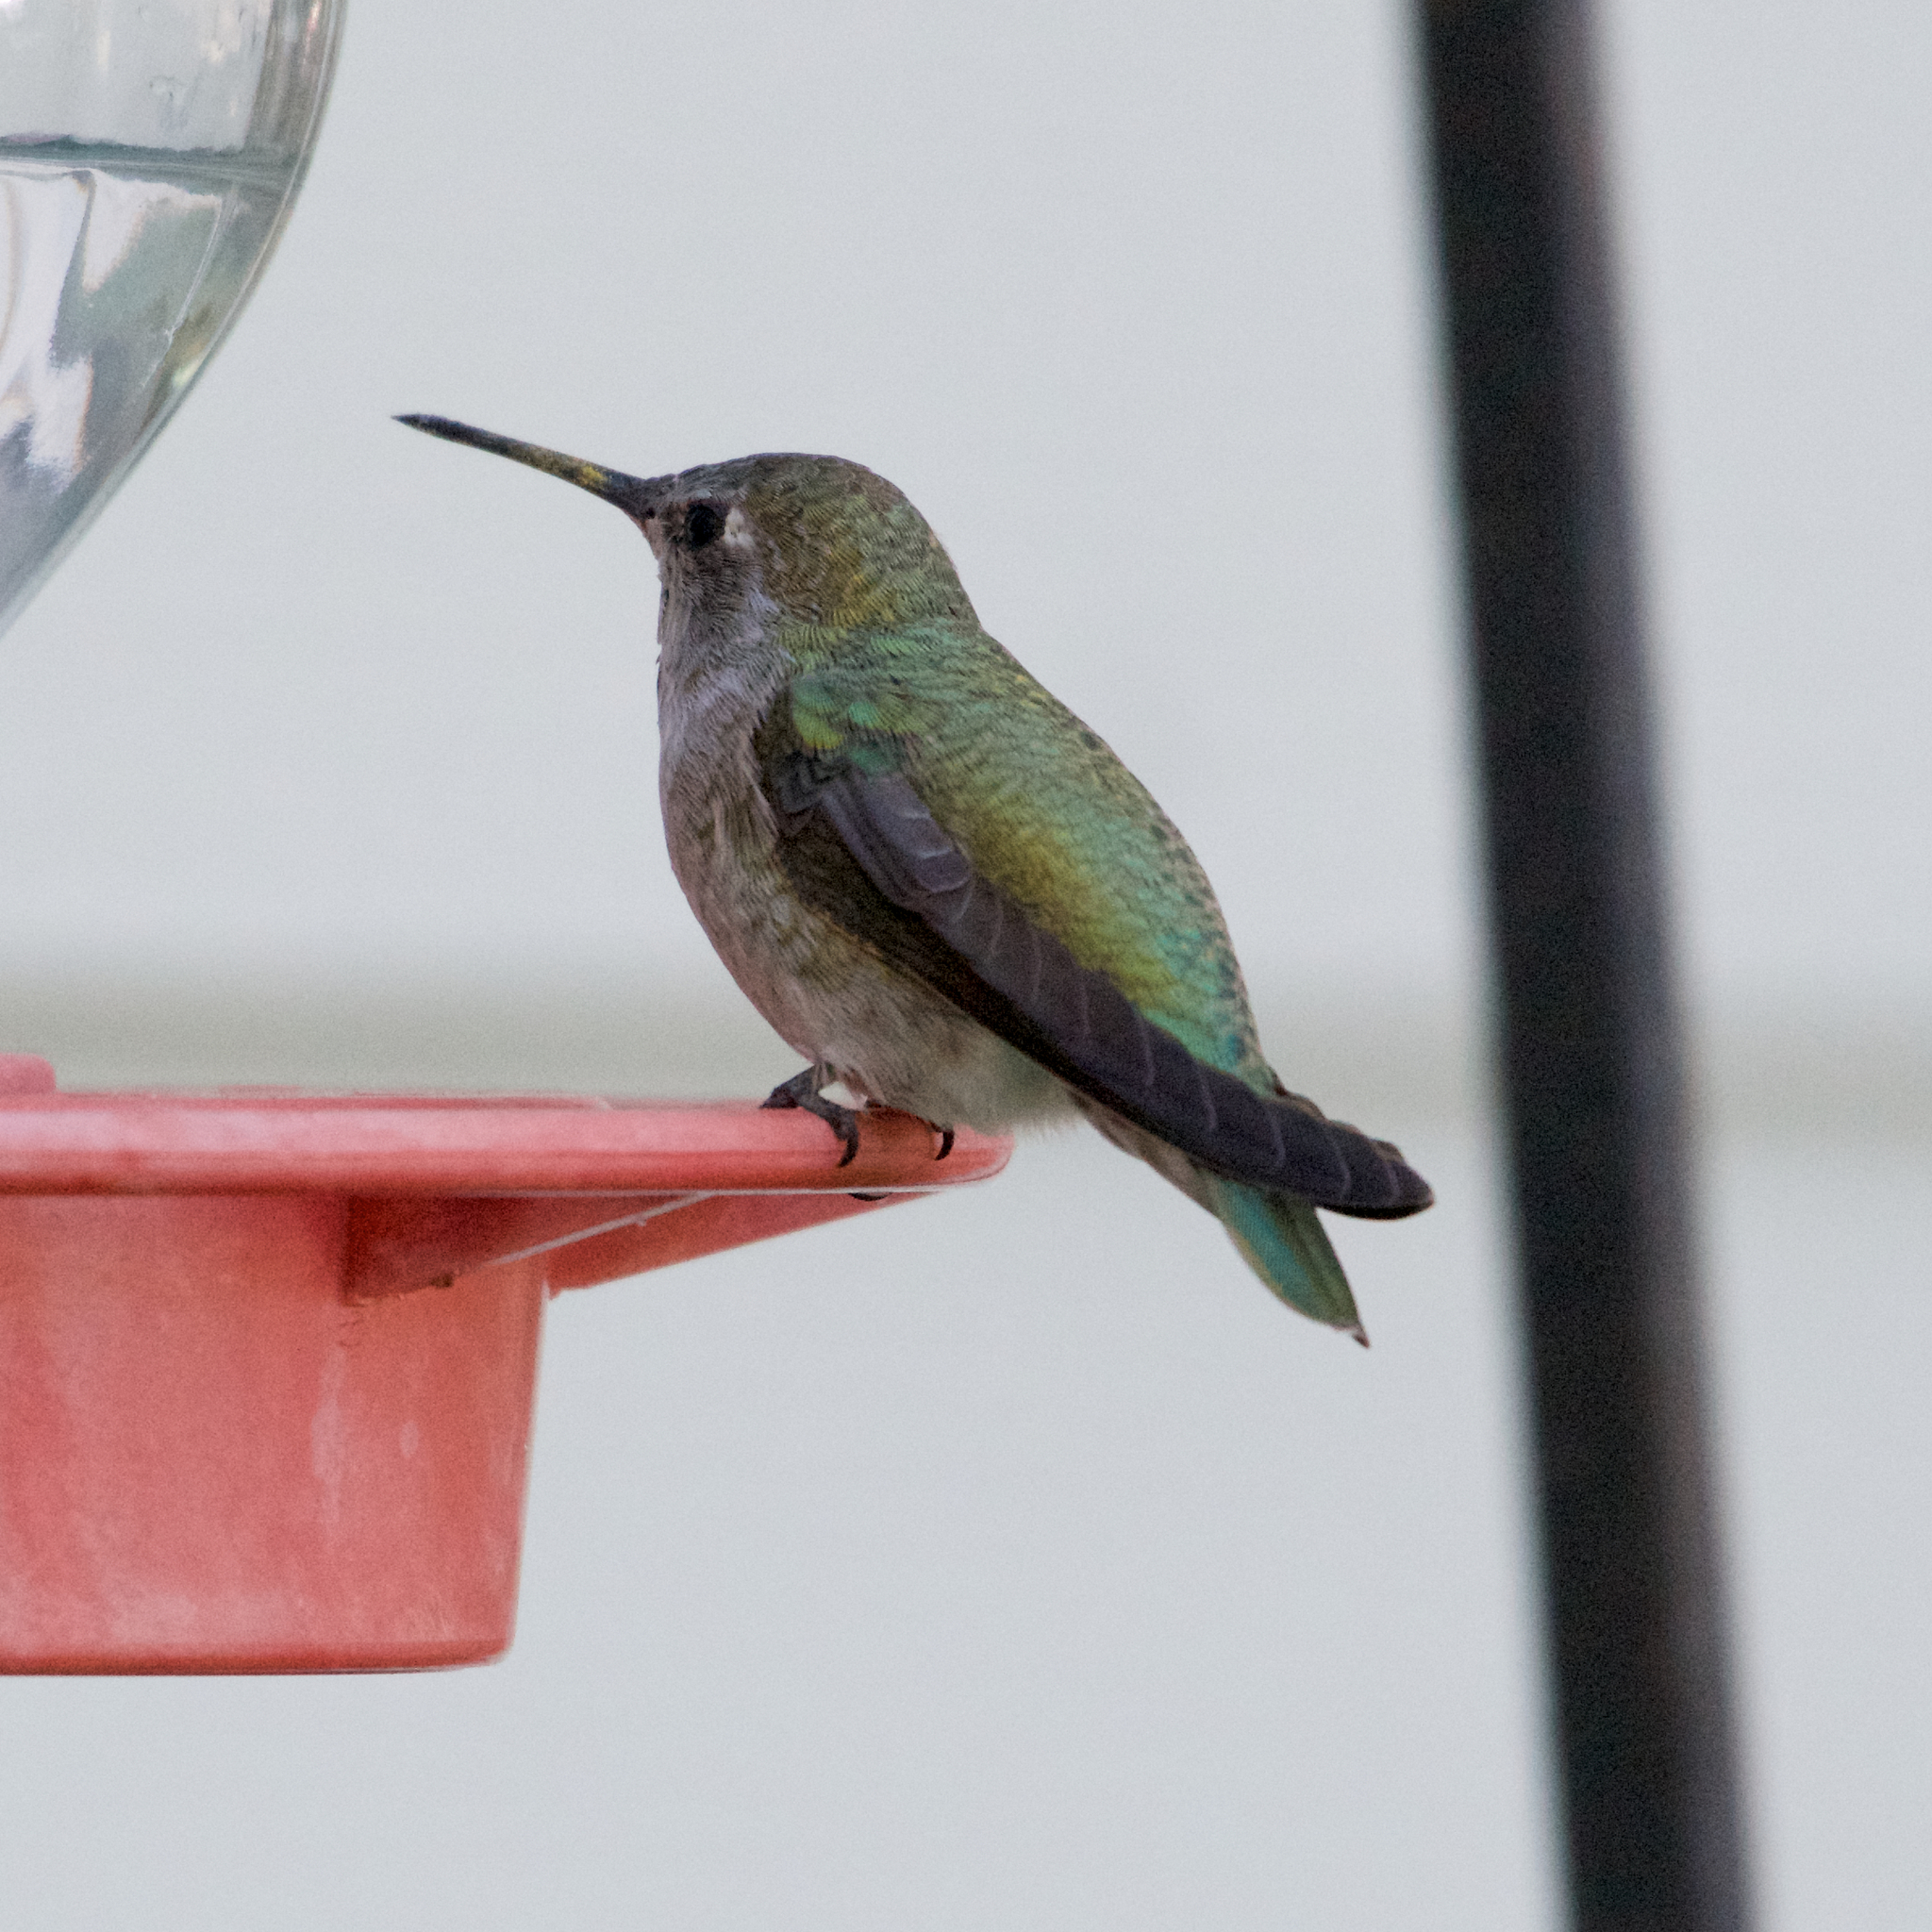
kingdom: Animalia
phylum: Chordata
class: Aves
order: Apodiformes
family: Trochilidae
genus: Calypte
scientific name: Calypte anna
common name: Anna's hummingbird
